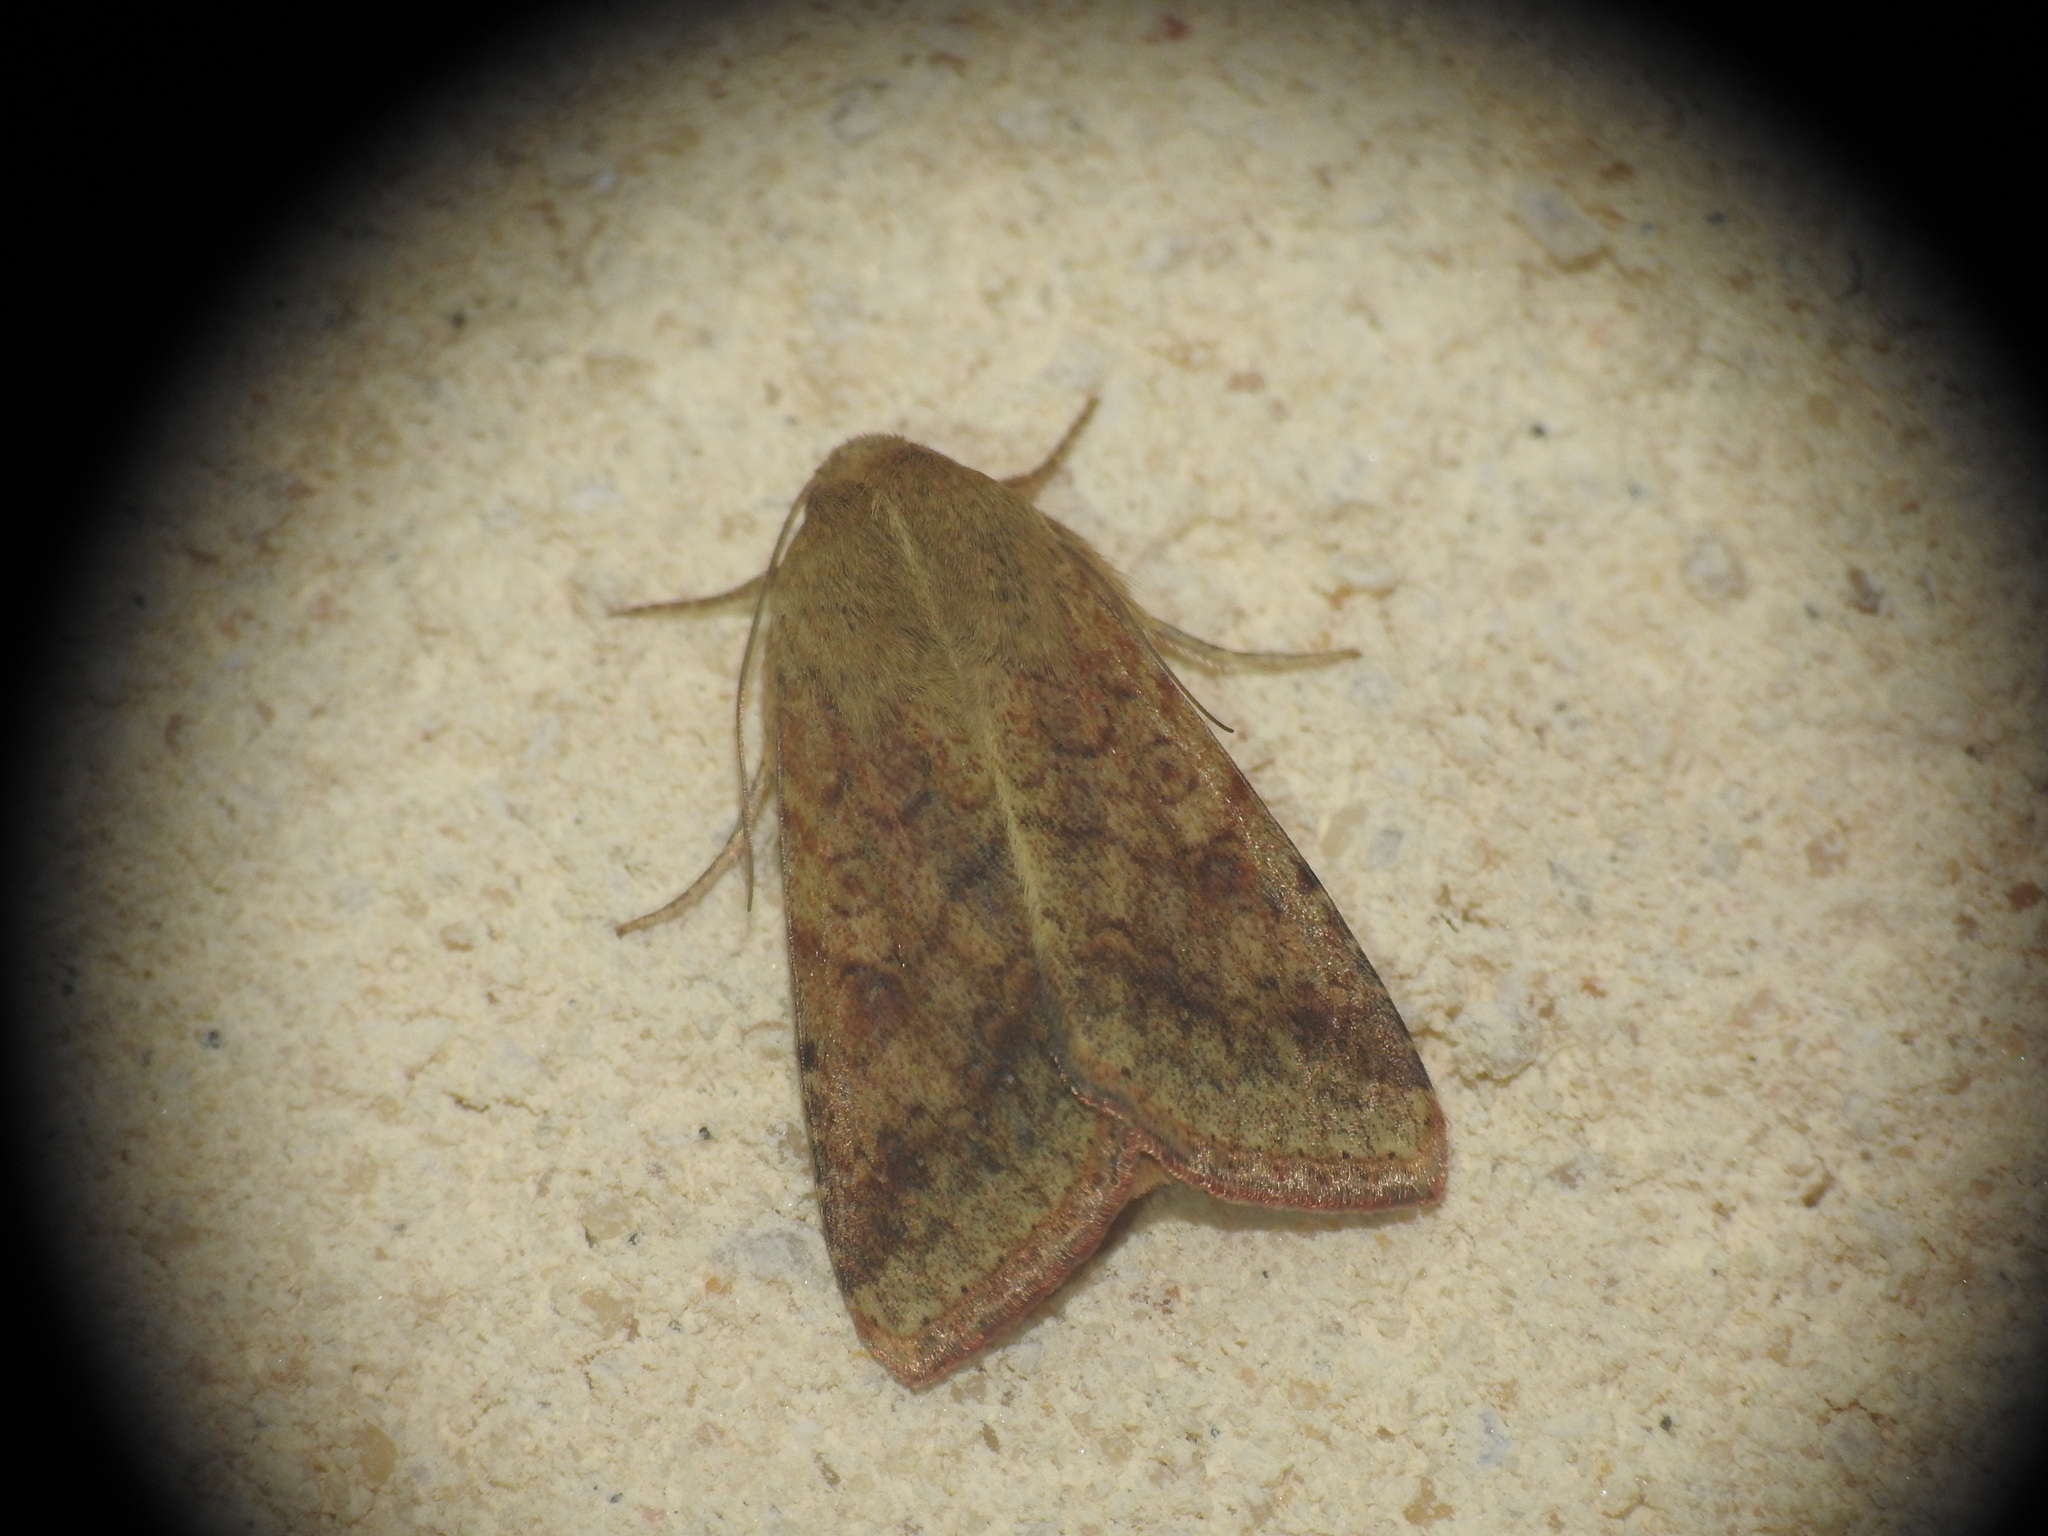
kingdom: Animalia
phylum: Arthropoda
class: Insecta
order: Lepidoptera
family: Noctuidae
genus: Helicoverpa
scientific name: Helicoverpa armigera
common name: Cotton bollworm
